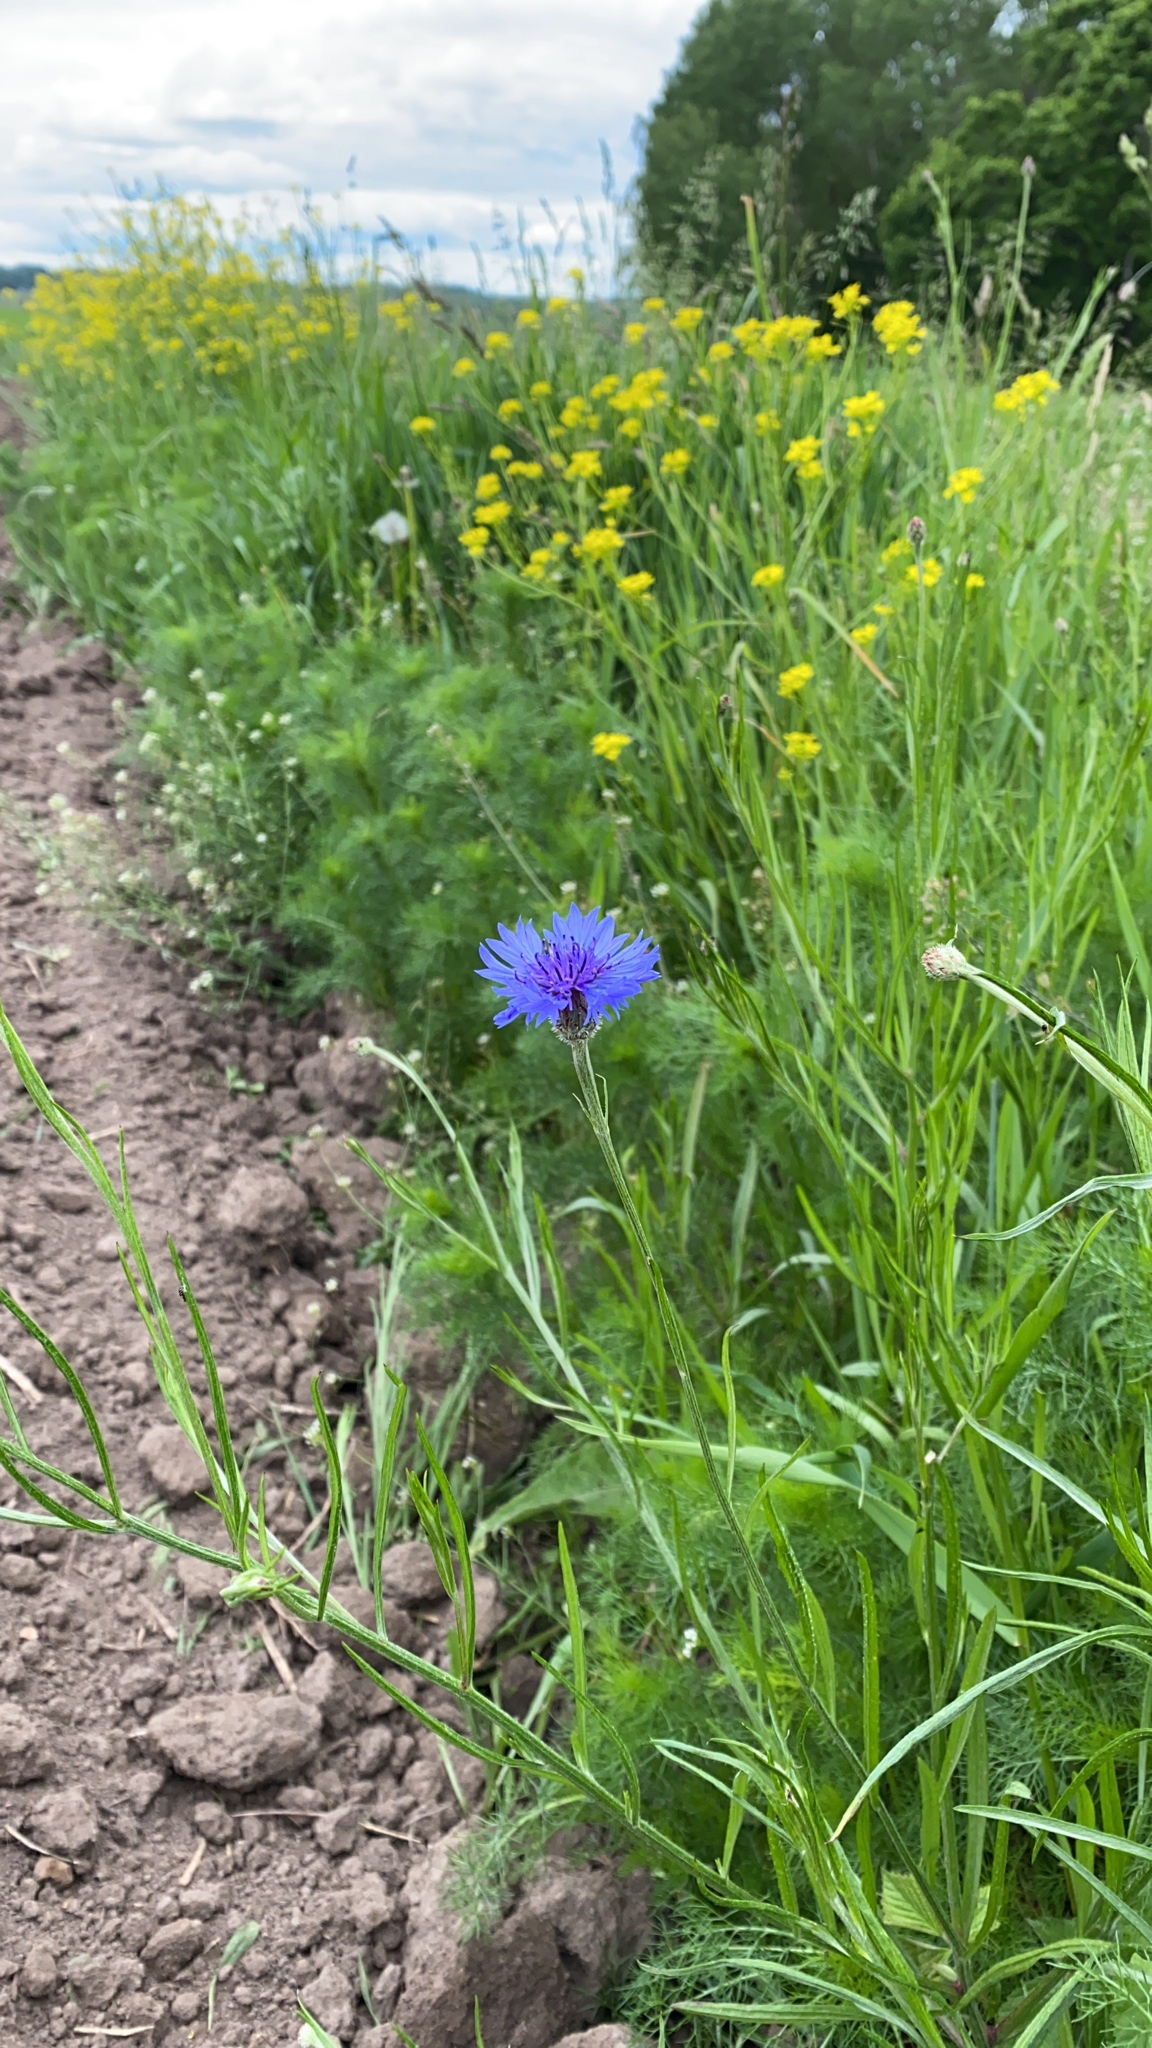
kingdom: Plantae
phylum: Tracheophyta
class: Magnoliopsida
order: Asterales
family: Asteraceae
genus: Centaurea
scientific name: Centaurea cyanus
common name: Cornflower
